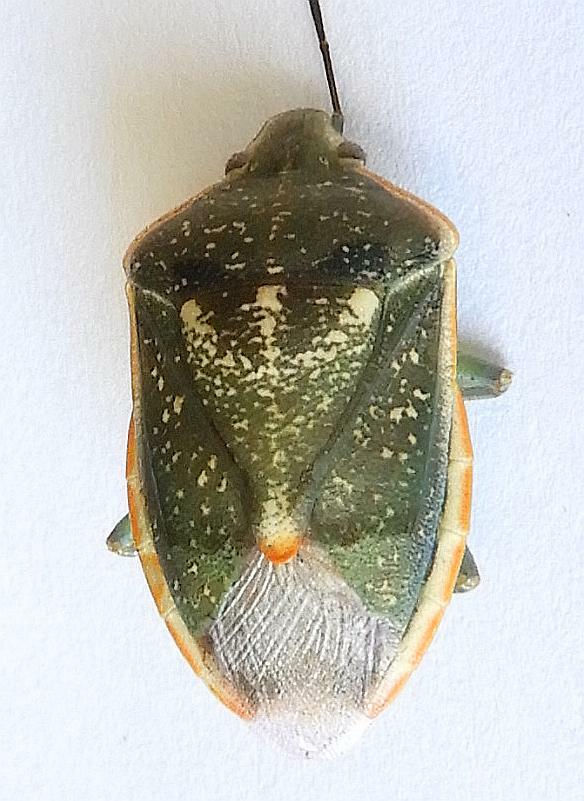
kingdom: Animalia
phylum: Arthropoda
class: Insecta
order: Hemiptera
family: Pentatomidae
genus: Chlorochroa
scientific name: Chlorochroa sayi
